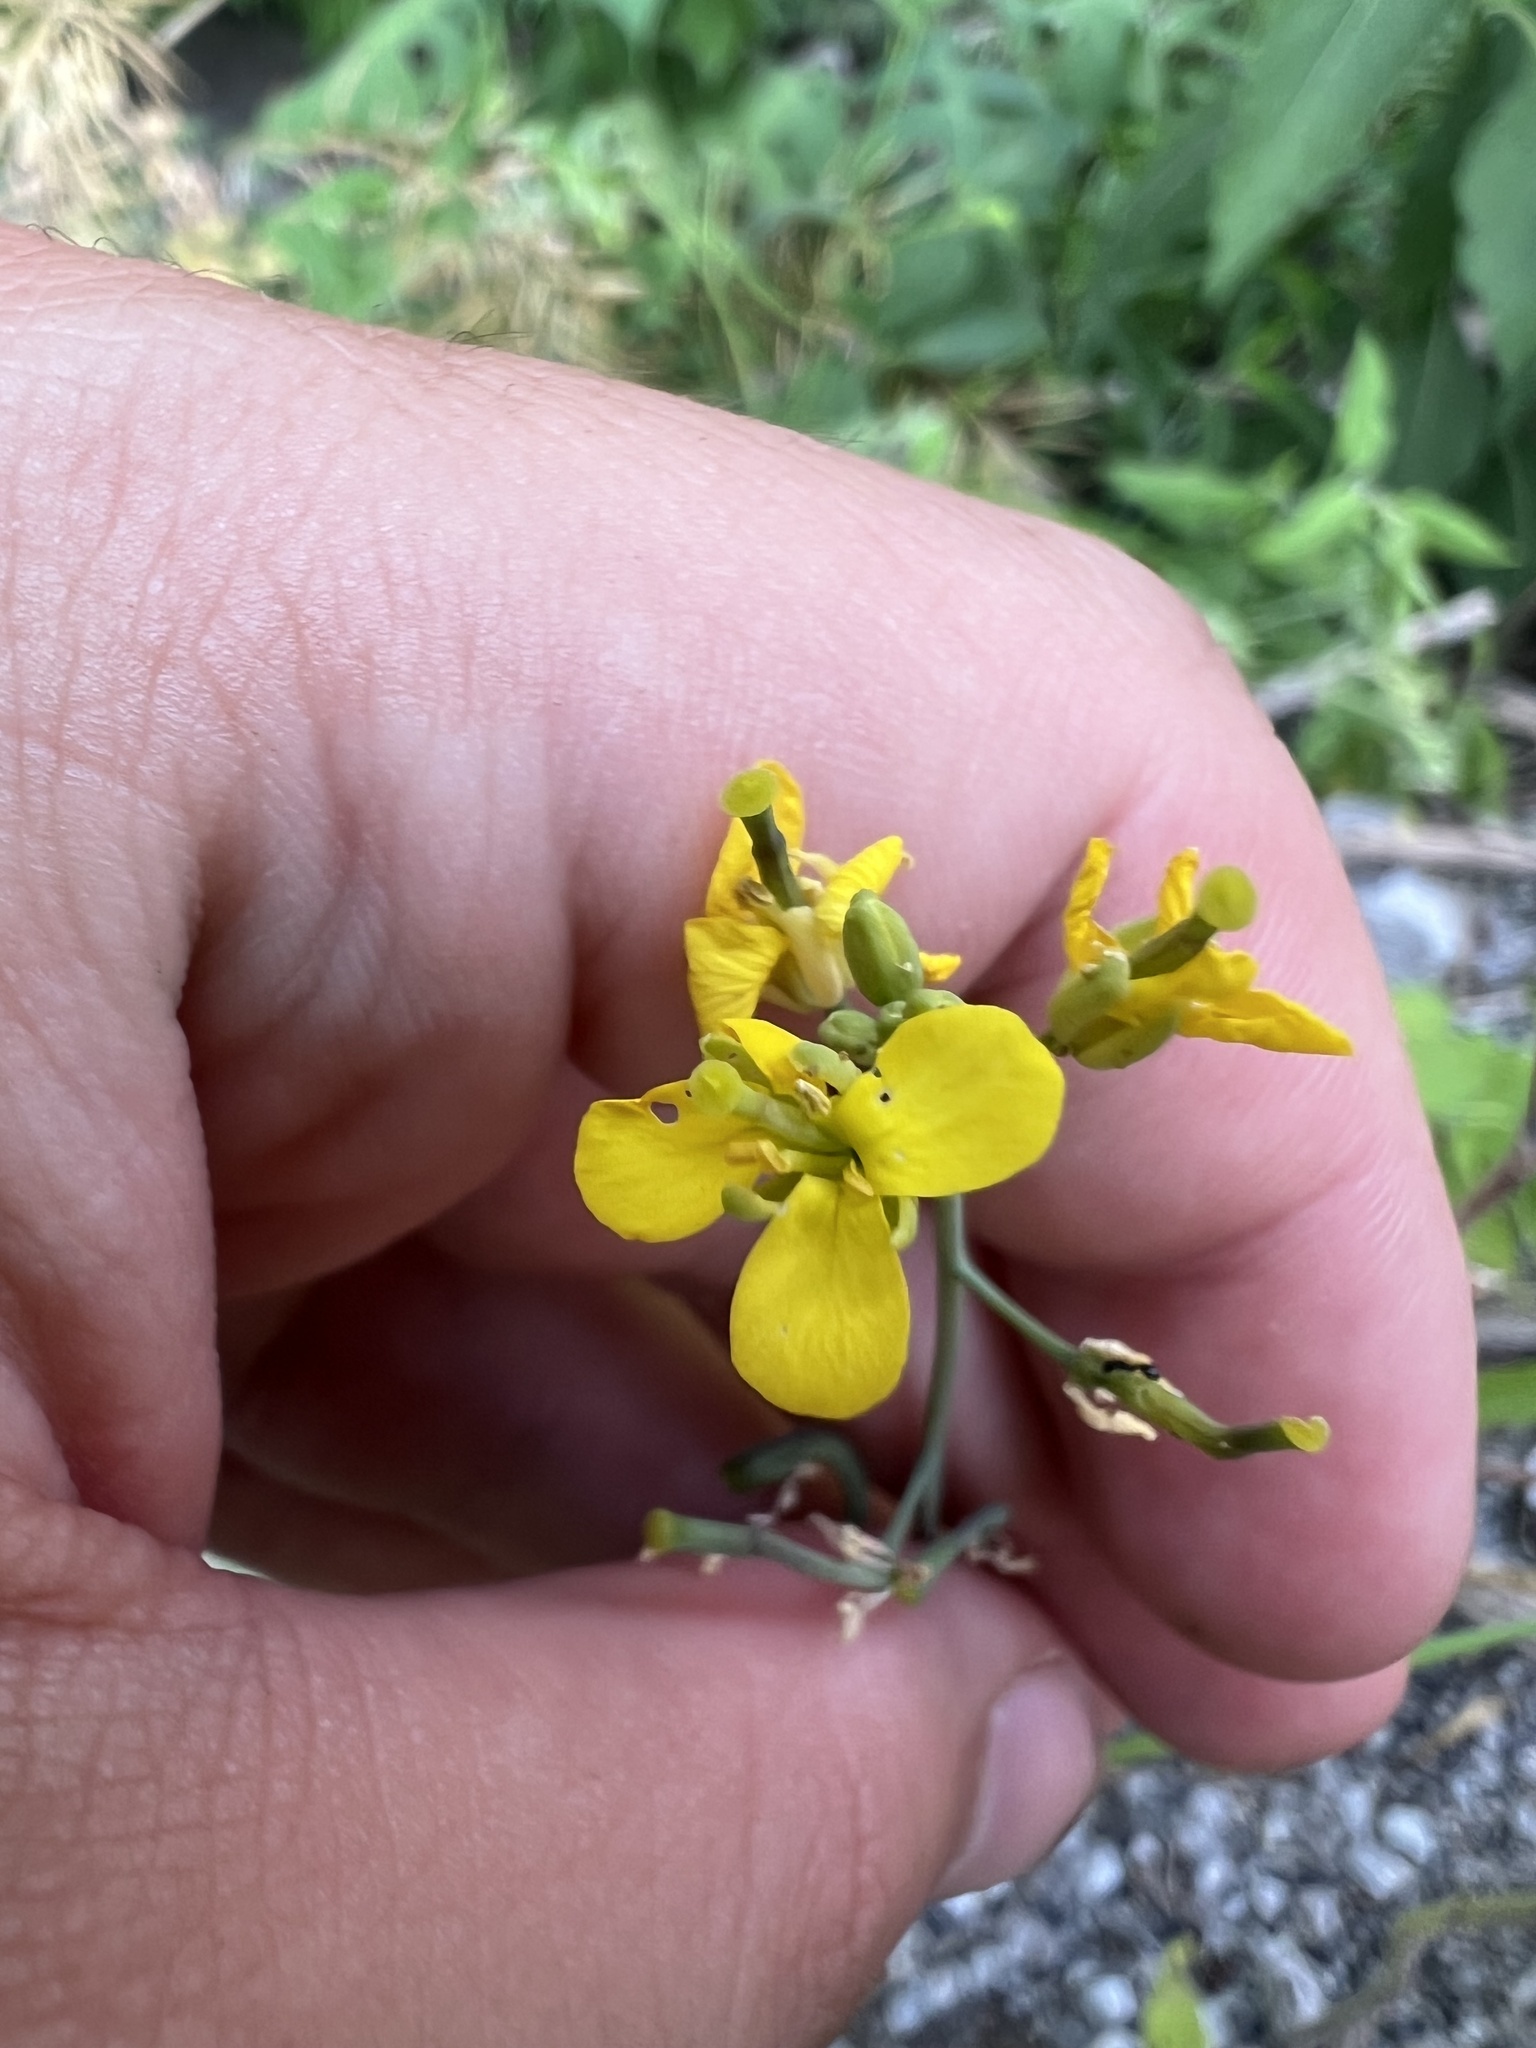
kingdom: Plantae
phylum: Tracheophyta
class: Magnoliopsida
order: Brassicales
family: Brassicaceae
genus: Brassica
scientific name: Brassica rapa
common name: Field mustard
